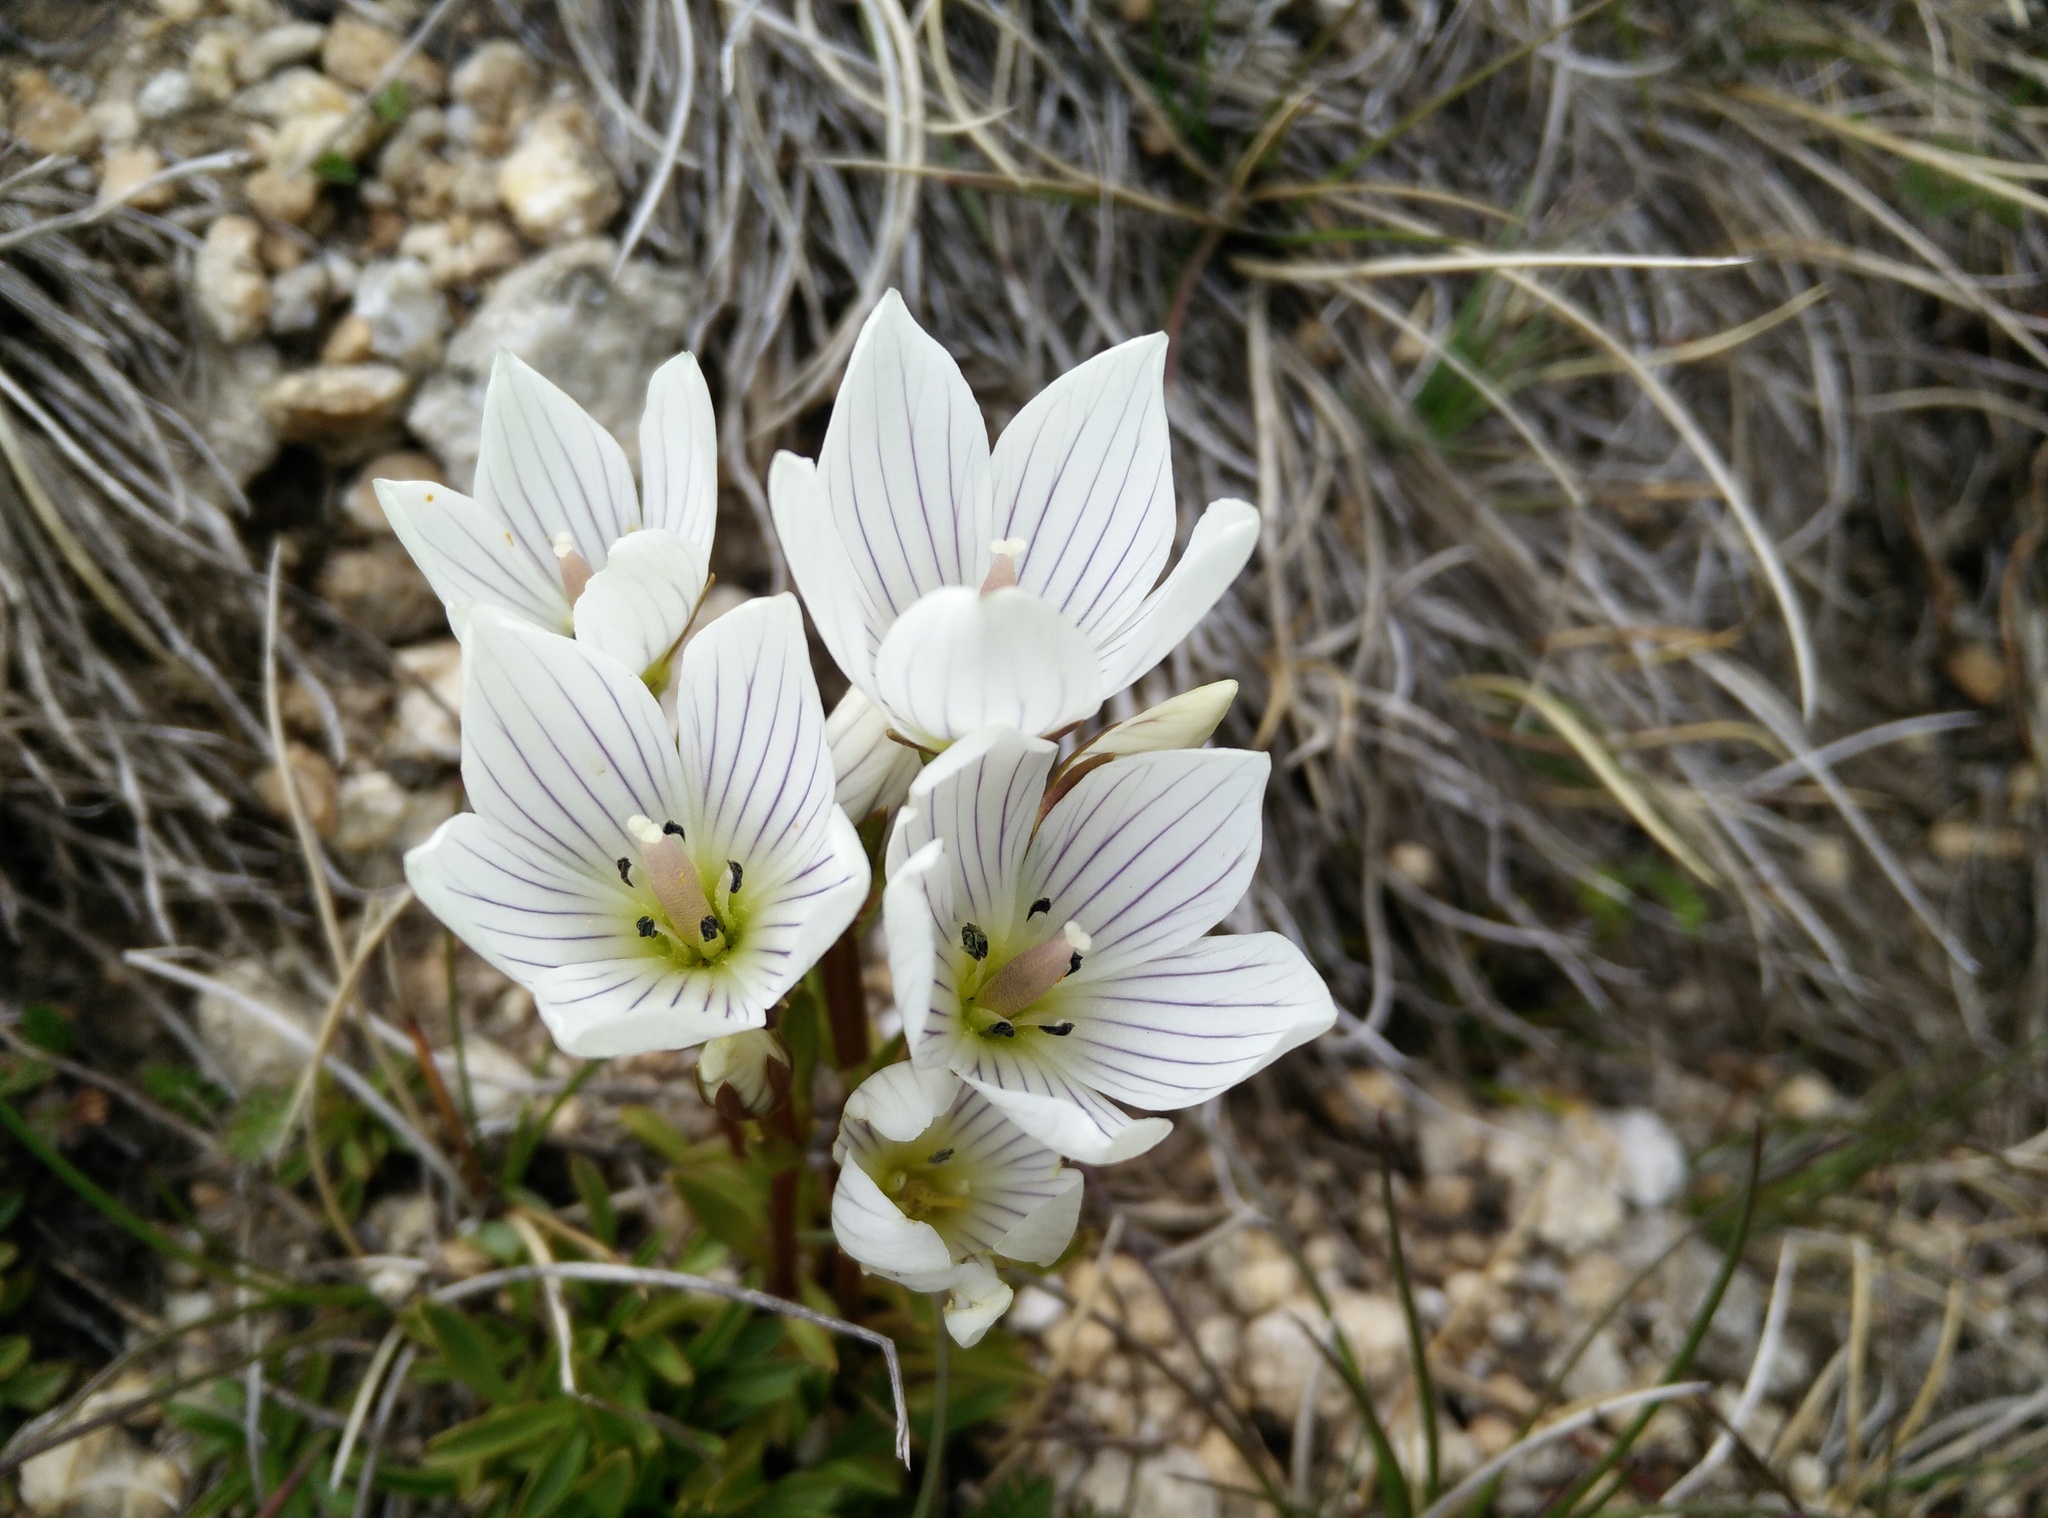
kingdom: Plantae
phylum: Tracheophyta
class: Magnoliopsida
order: Gentianales
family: Gentianaceae
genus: Gentianella
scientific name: Gentianella muelleriana
